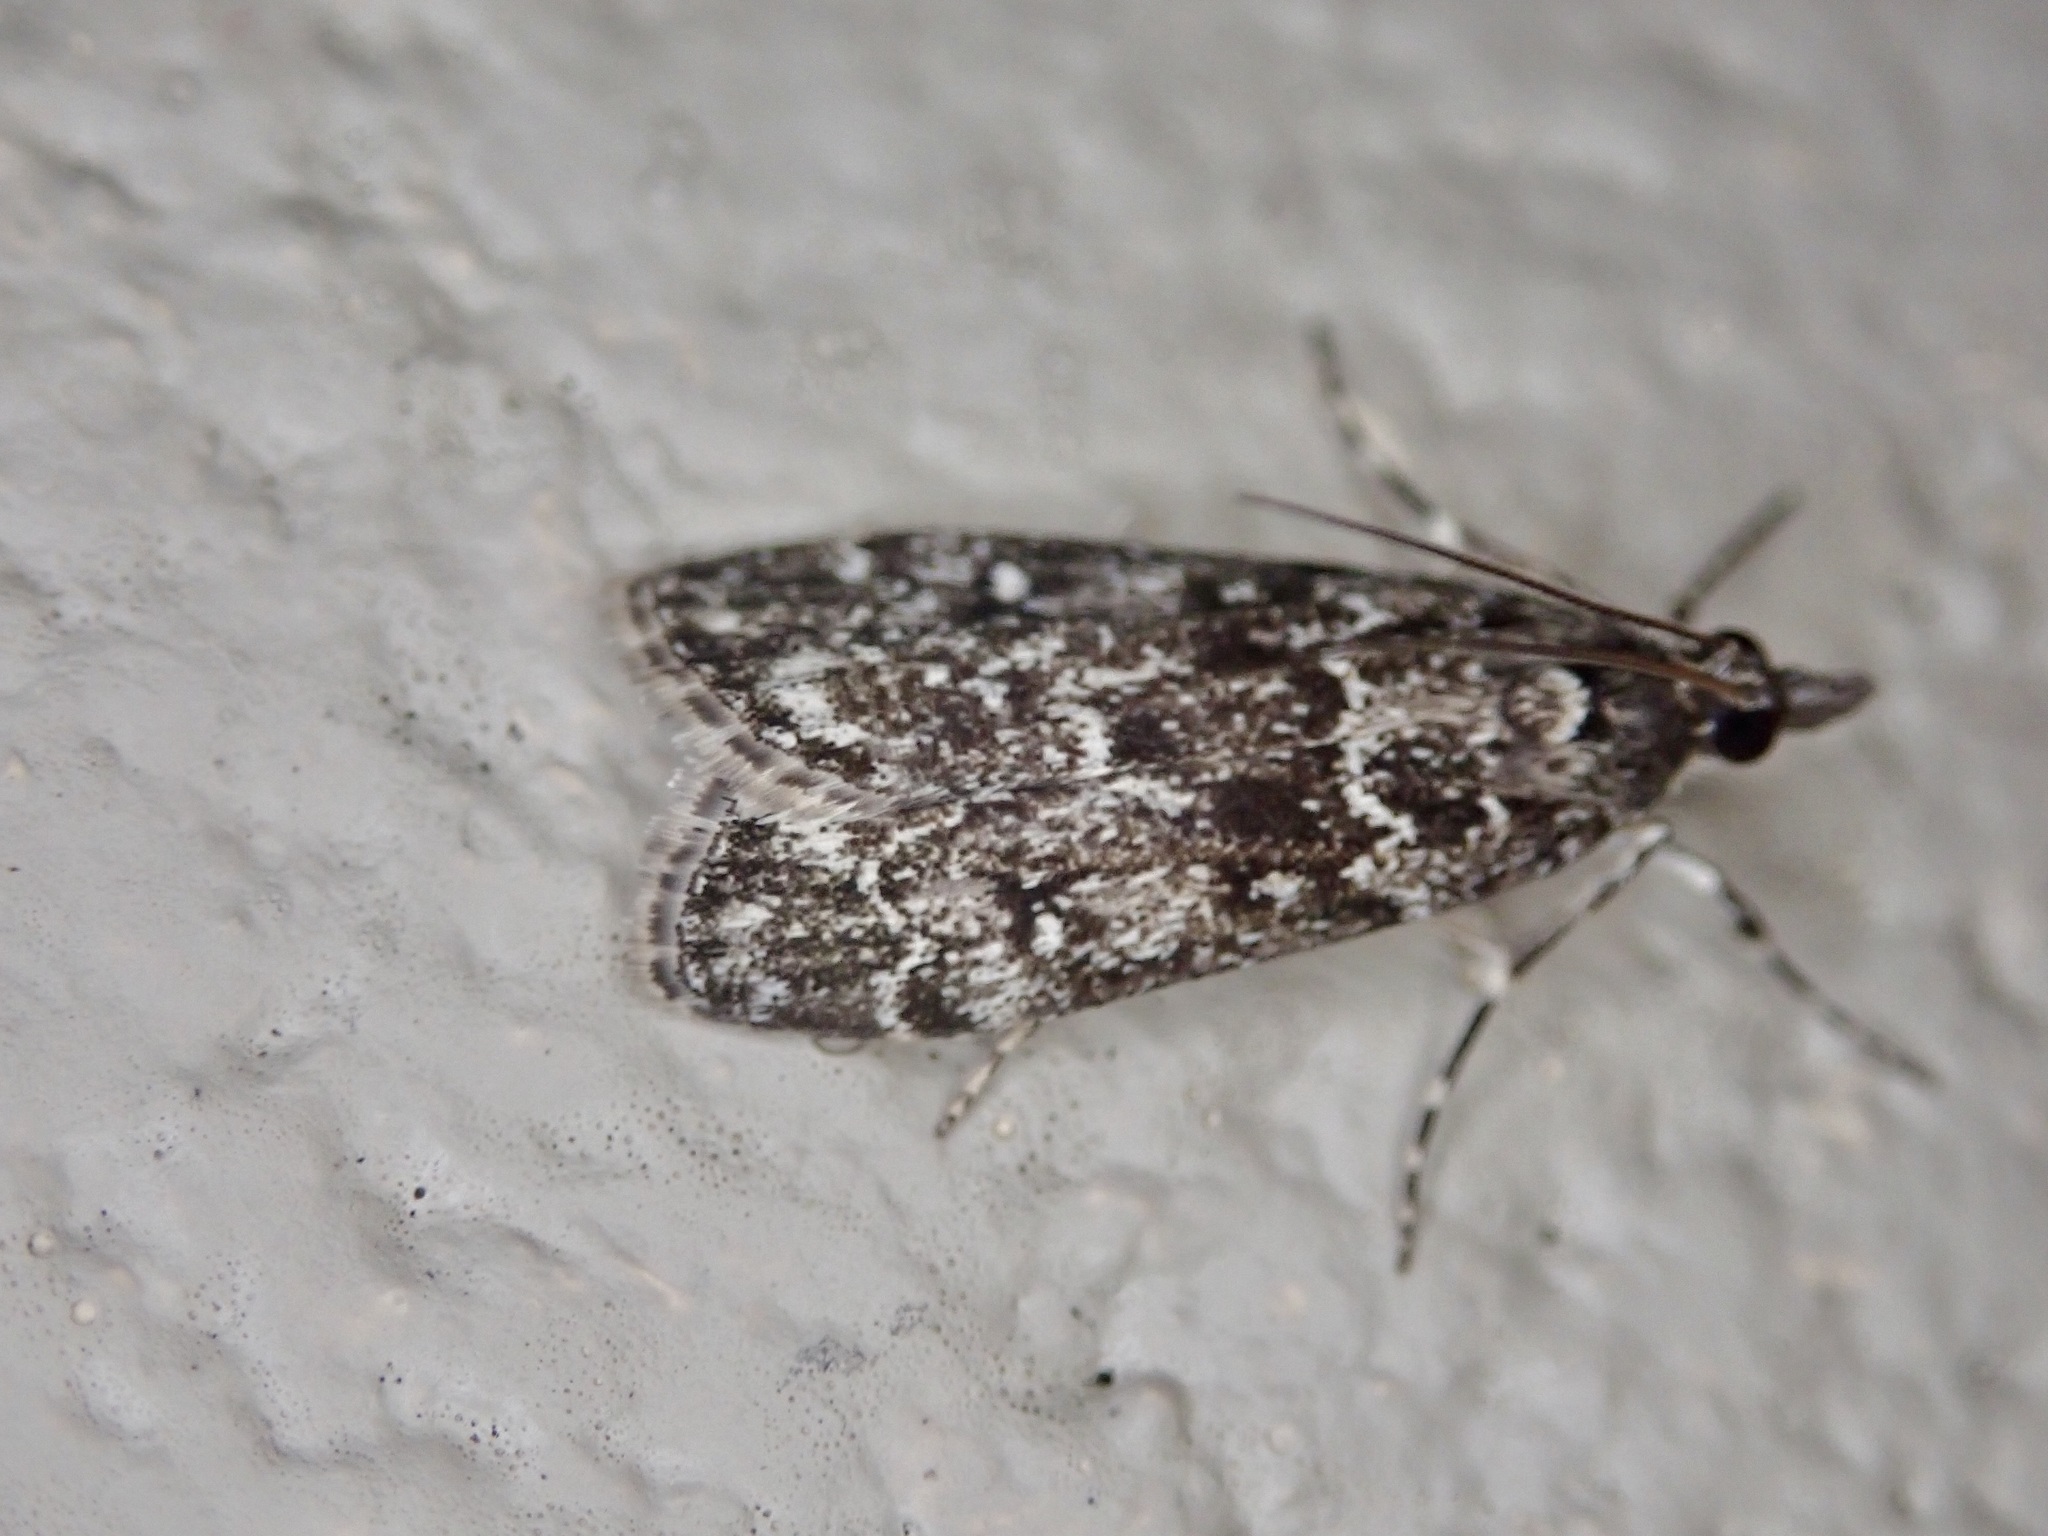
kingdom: Animalia
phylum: Arthropoda
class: Insecta
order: Lepidoptera
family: Crambidae
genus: Eudonia
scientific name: Eudonia philerga
